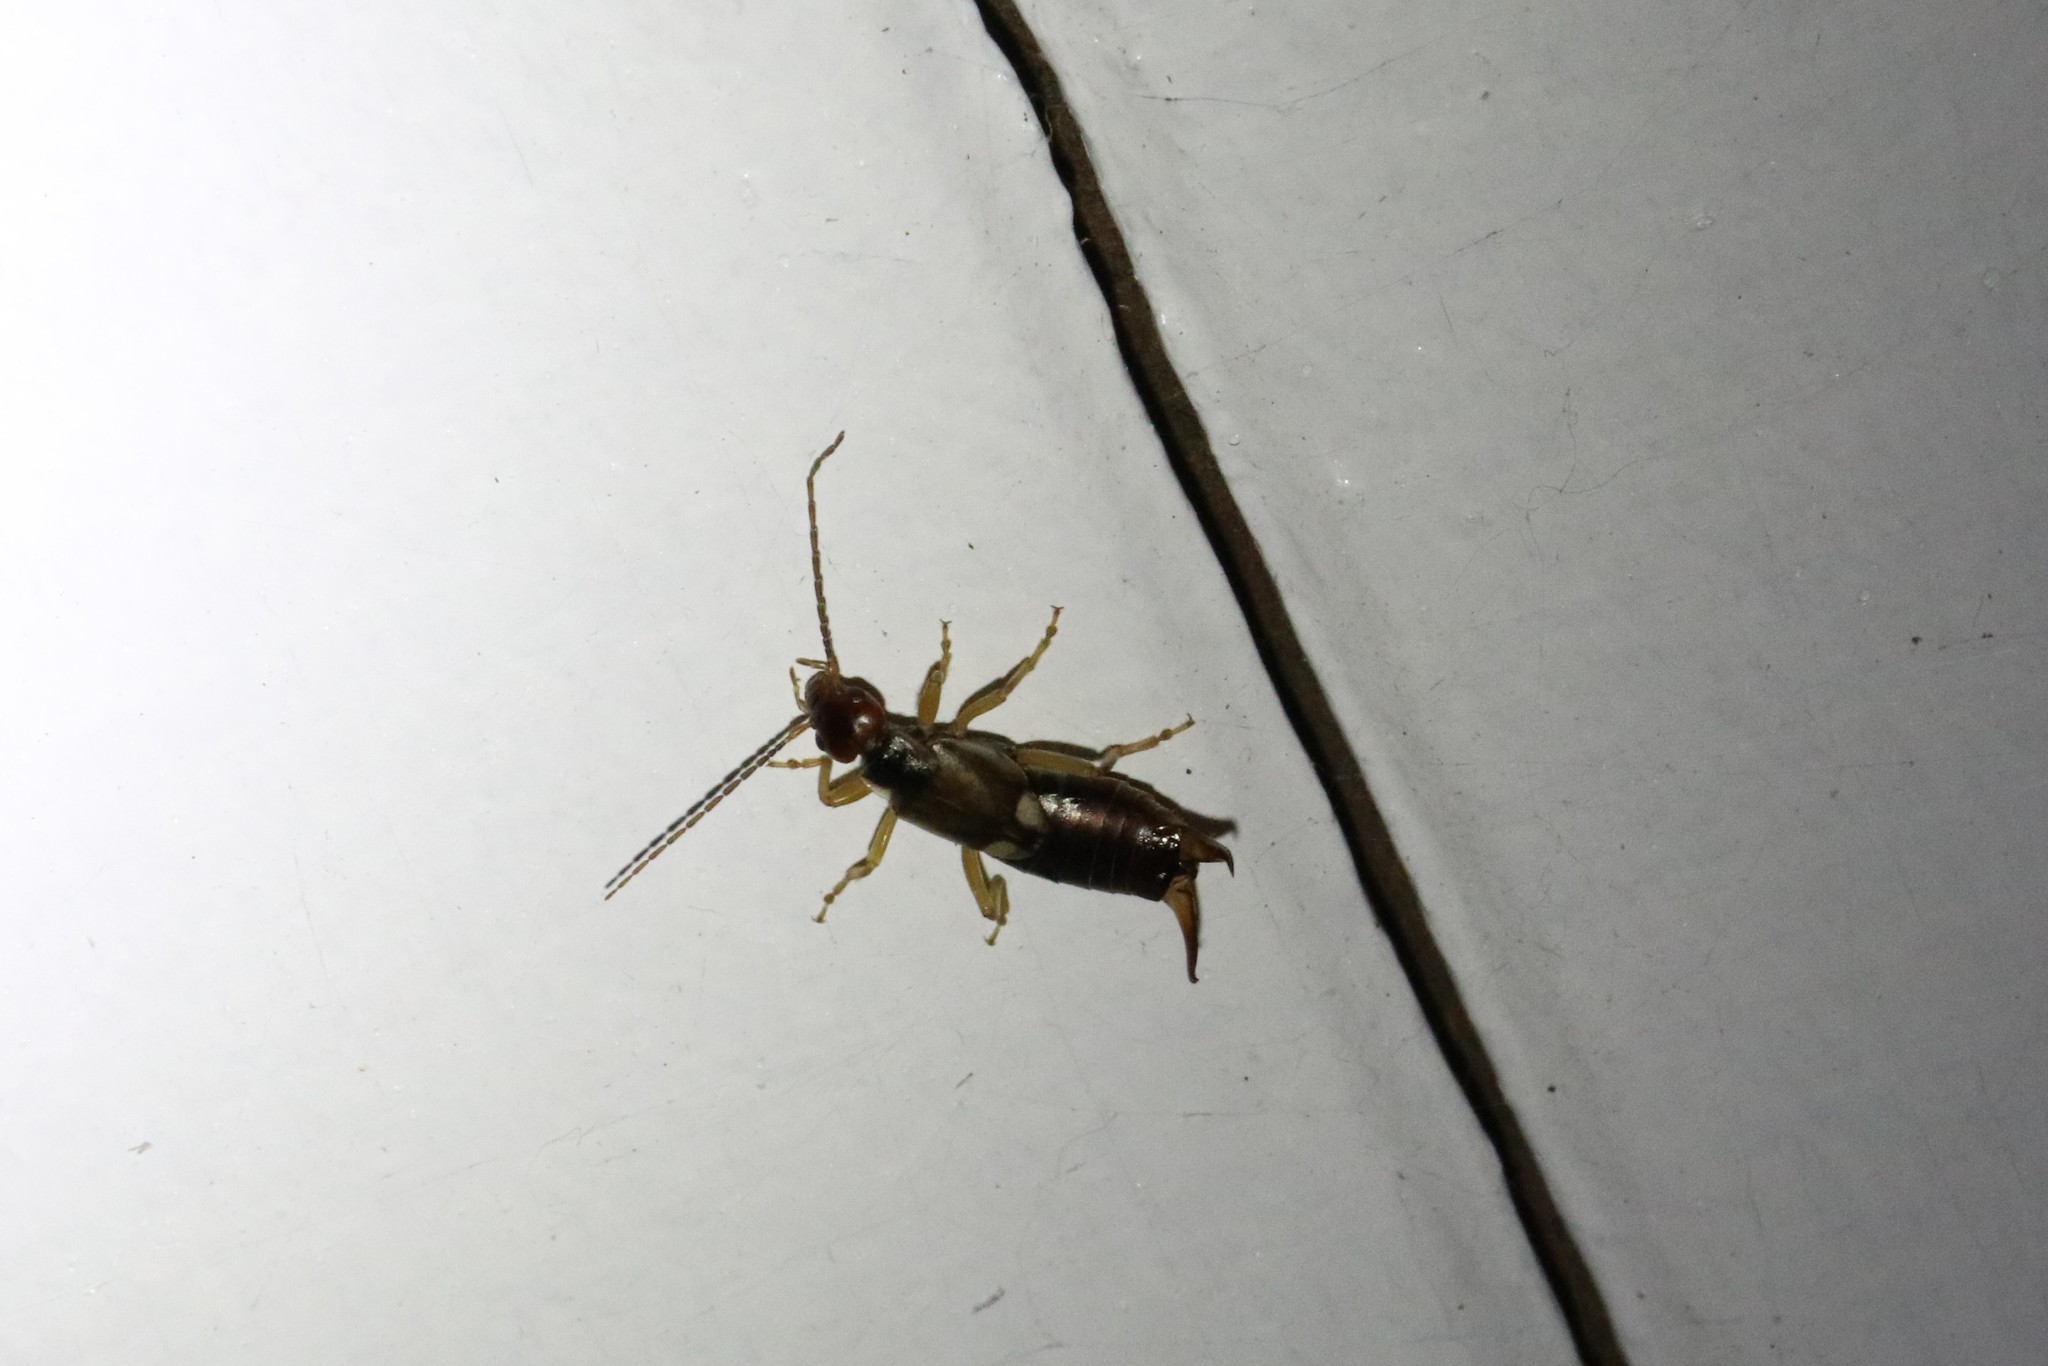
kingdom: Animalia
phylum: Arthropoda
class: Insecta
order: Dermaptera
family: Forficulidae
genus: Forficula
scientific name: Forficula
